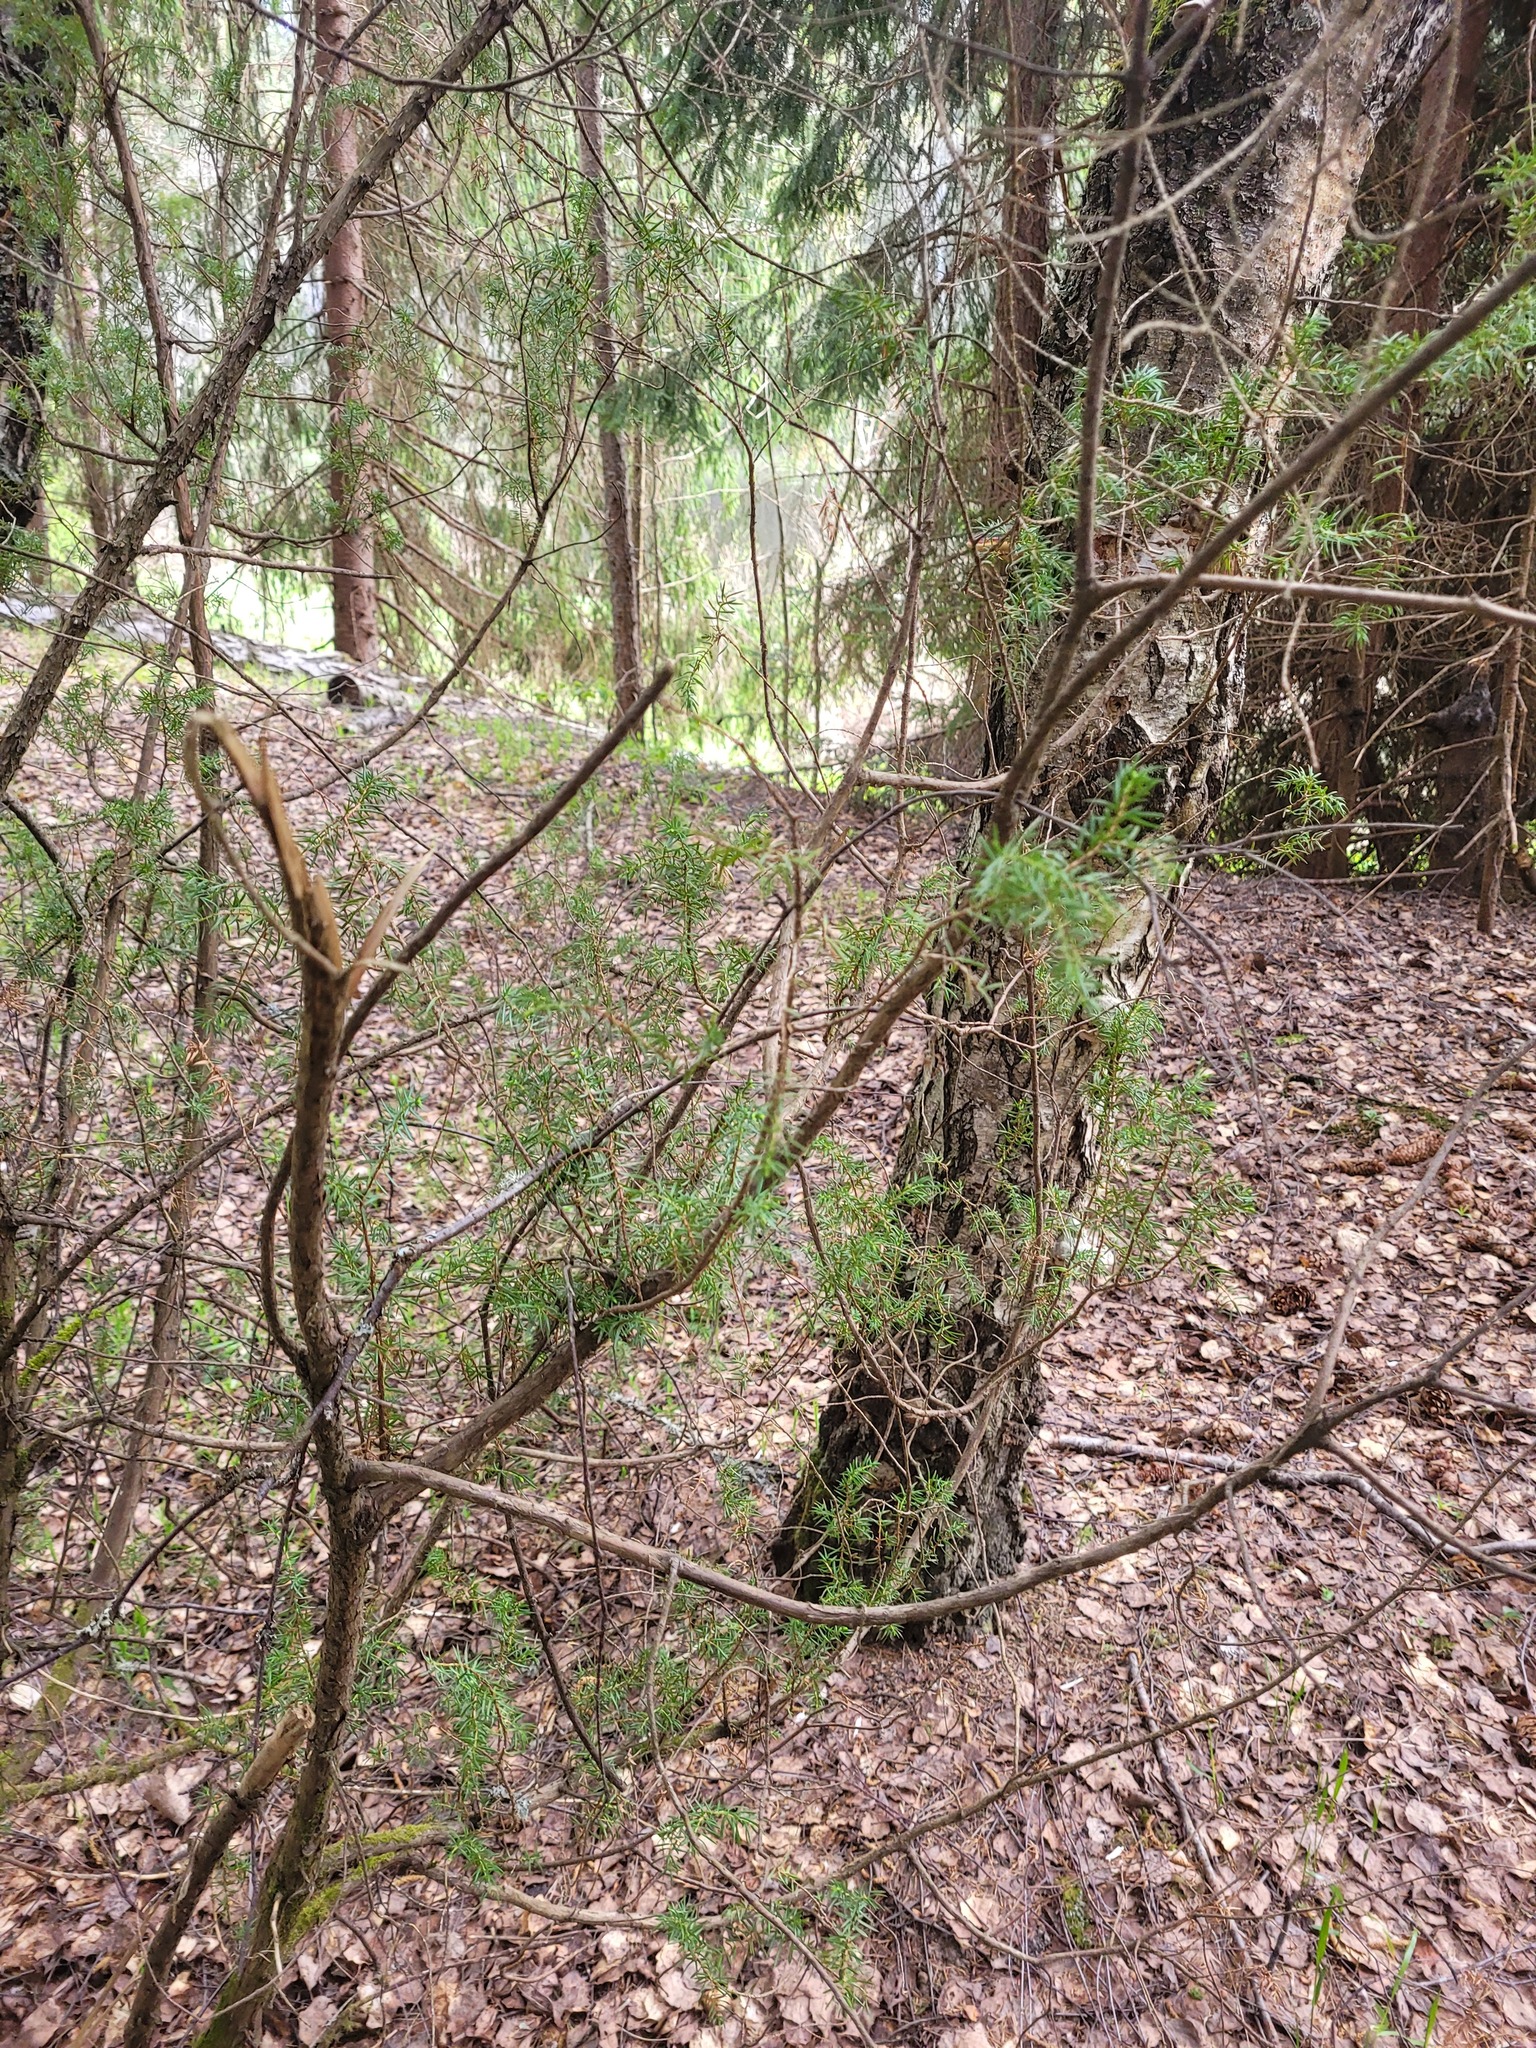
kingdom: Plantae
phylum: Tracheophyta
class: Pinopsida
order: Pinales
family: Cupressaceae
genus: Juniperus
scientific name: Juniperus communis
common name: Common juniper
